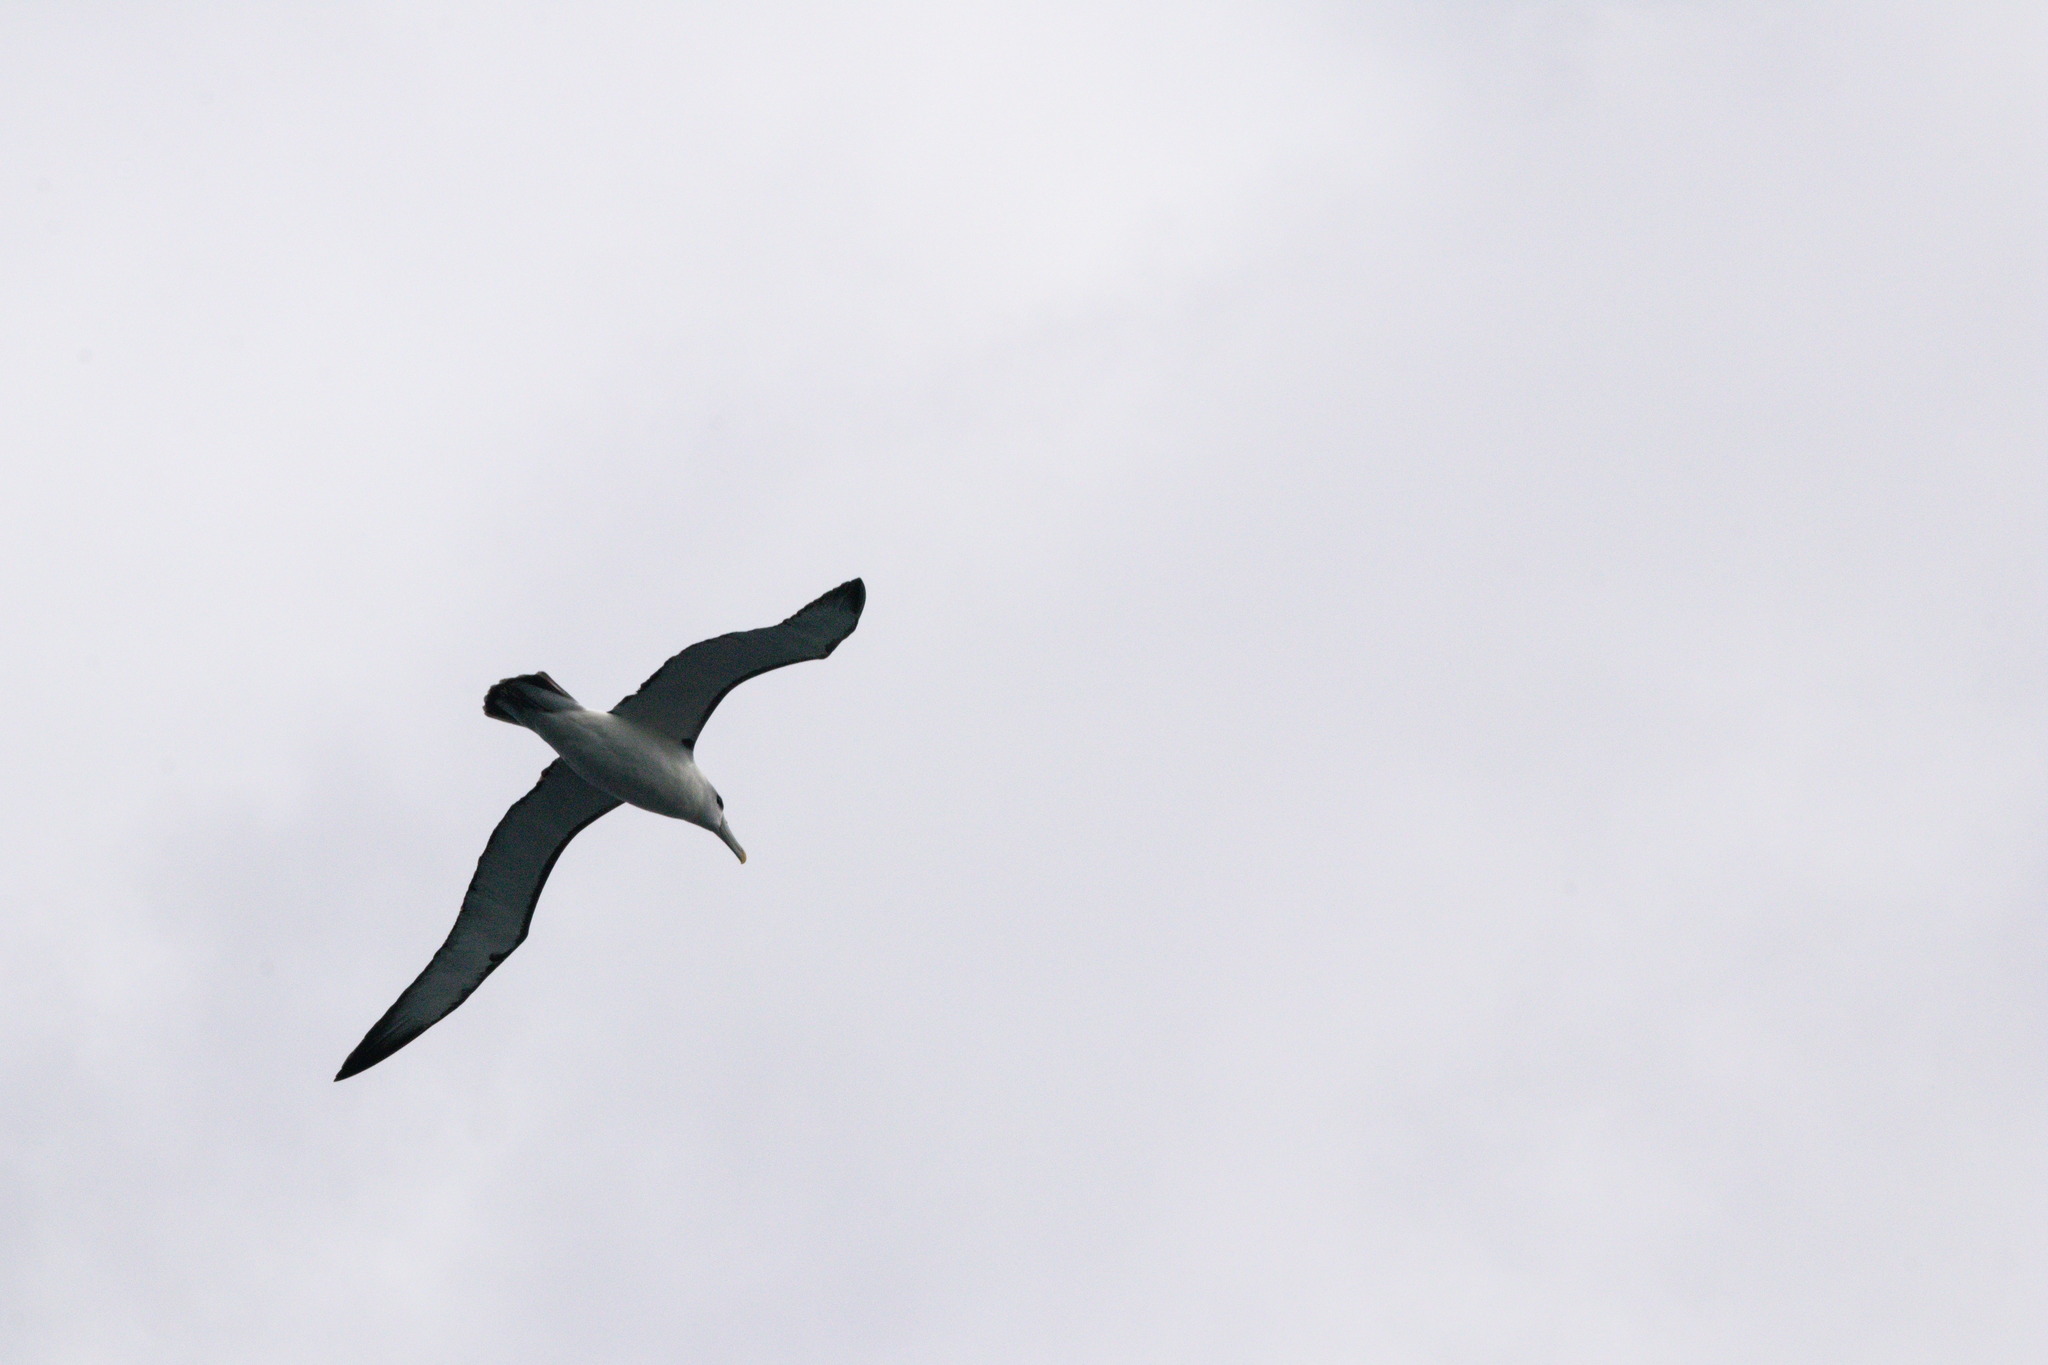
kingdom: Animalia
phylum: Chordata
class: Aves
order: Procellariiformes
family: Diomedeidae
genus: Thalassarche
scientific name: Thalassarche cauta
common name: Shy albatross
